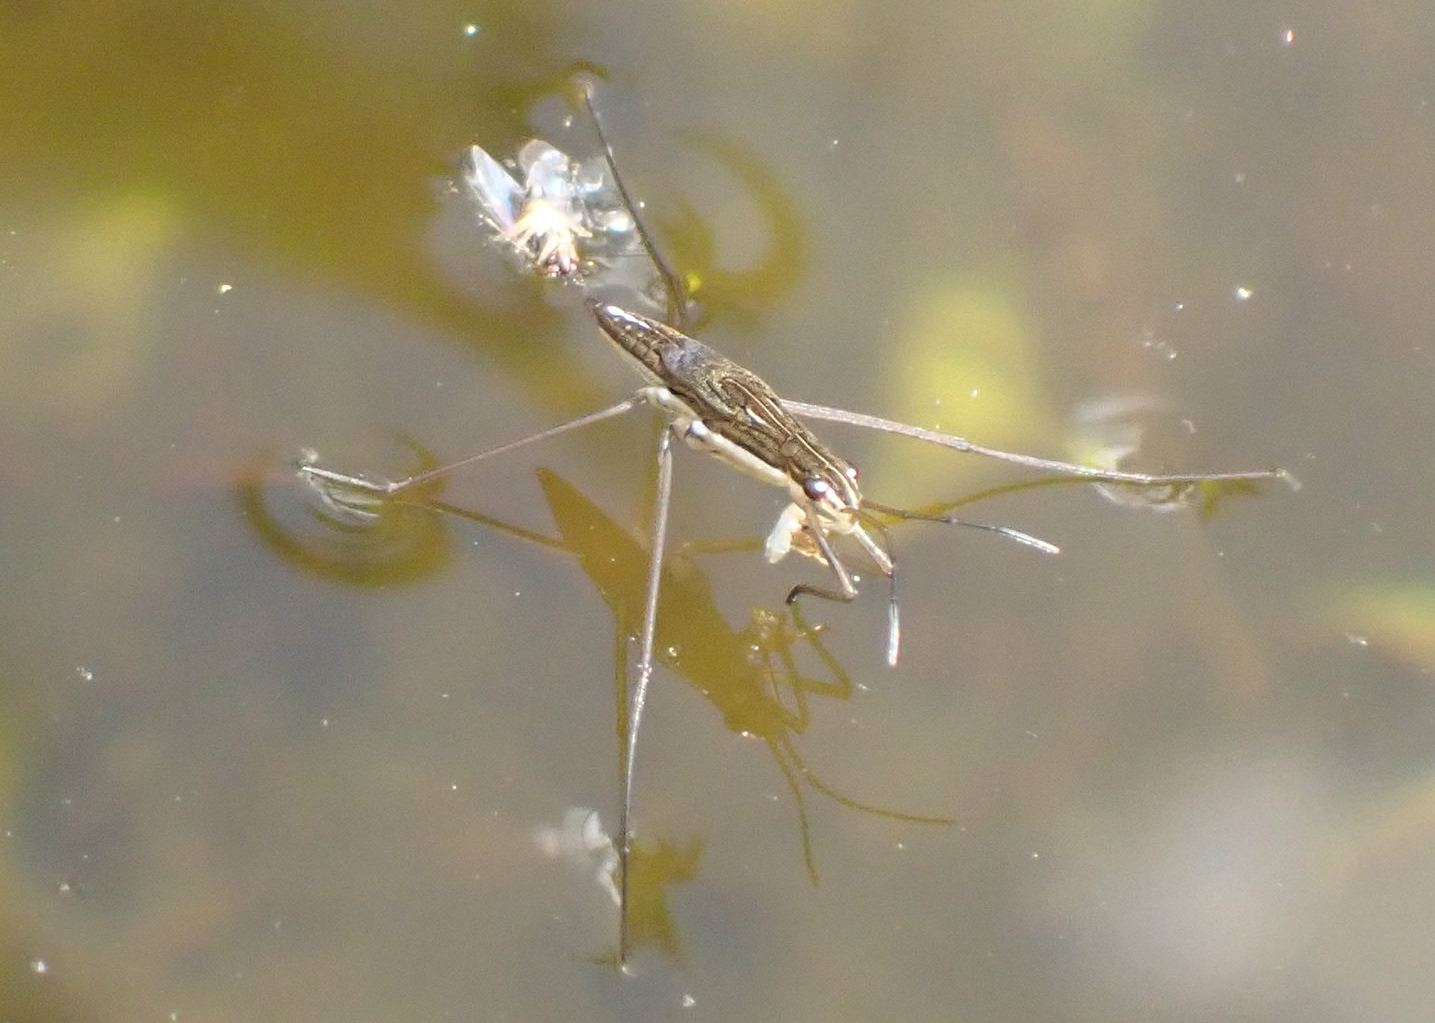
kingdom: Animalia
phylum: Arthropoda
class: Insecta
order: Hemiptera
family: Gerridae
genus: Limnoporus
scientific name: Limnoporus dissortis
